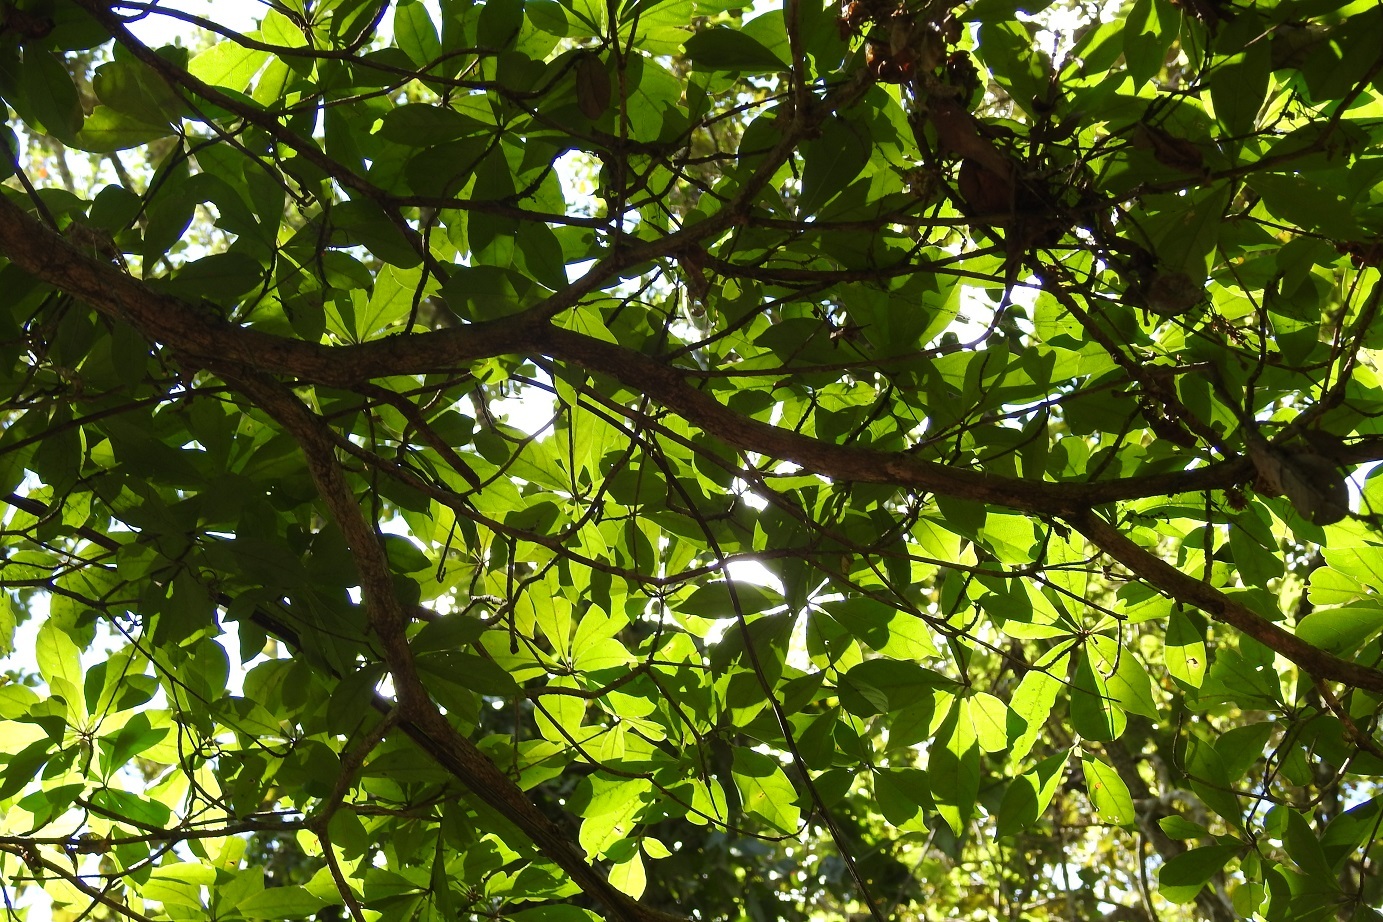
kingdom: Plantae
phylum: Tracheophyta
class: Magnoliopsida
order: Myrtales
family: Combretaceae
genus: Terminalia
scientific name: Terminalia amazonica
